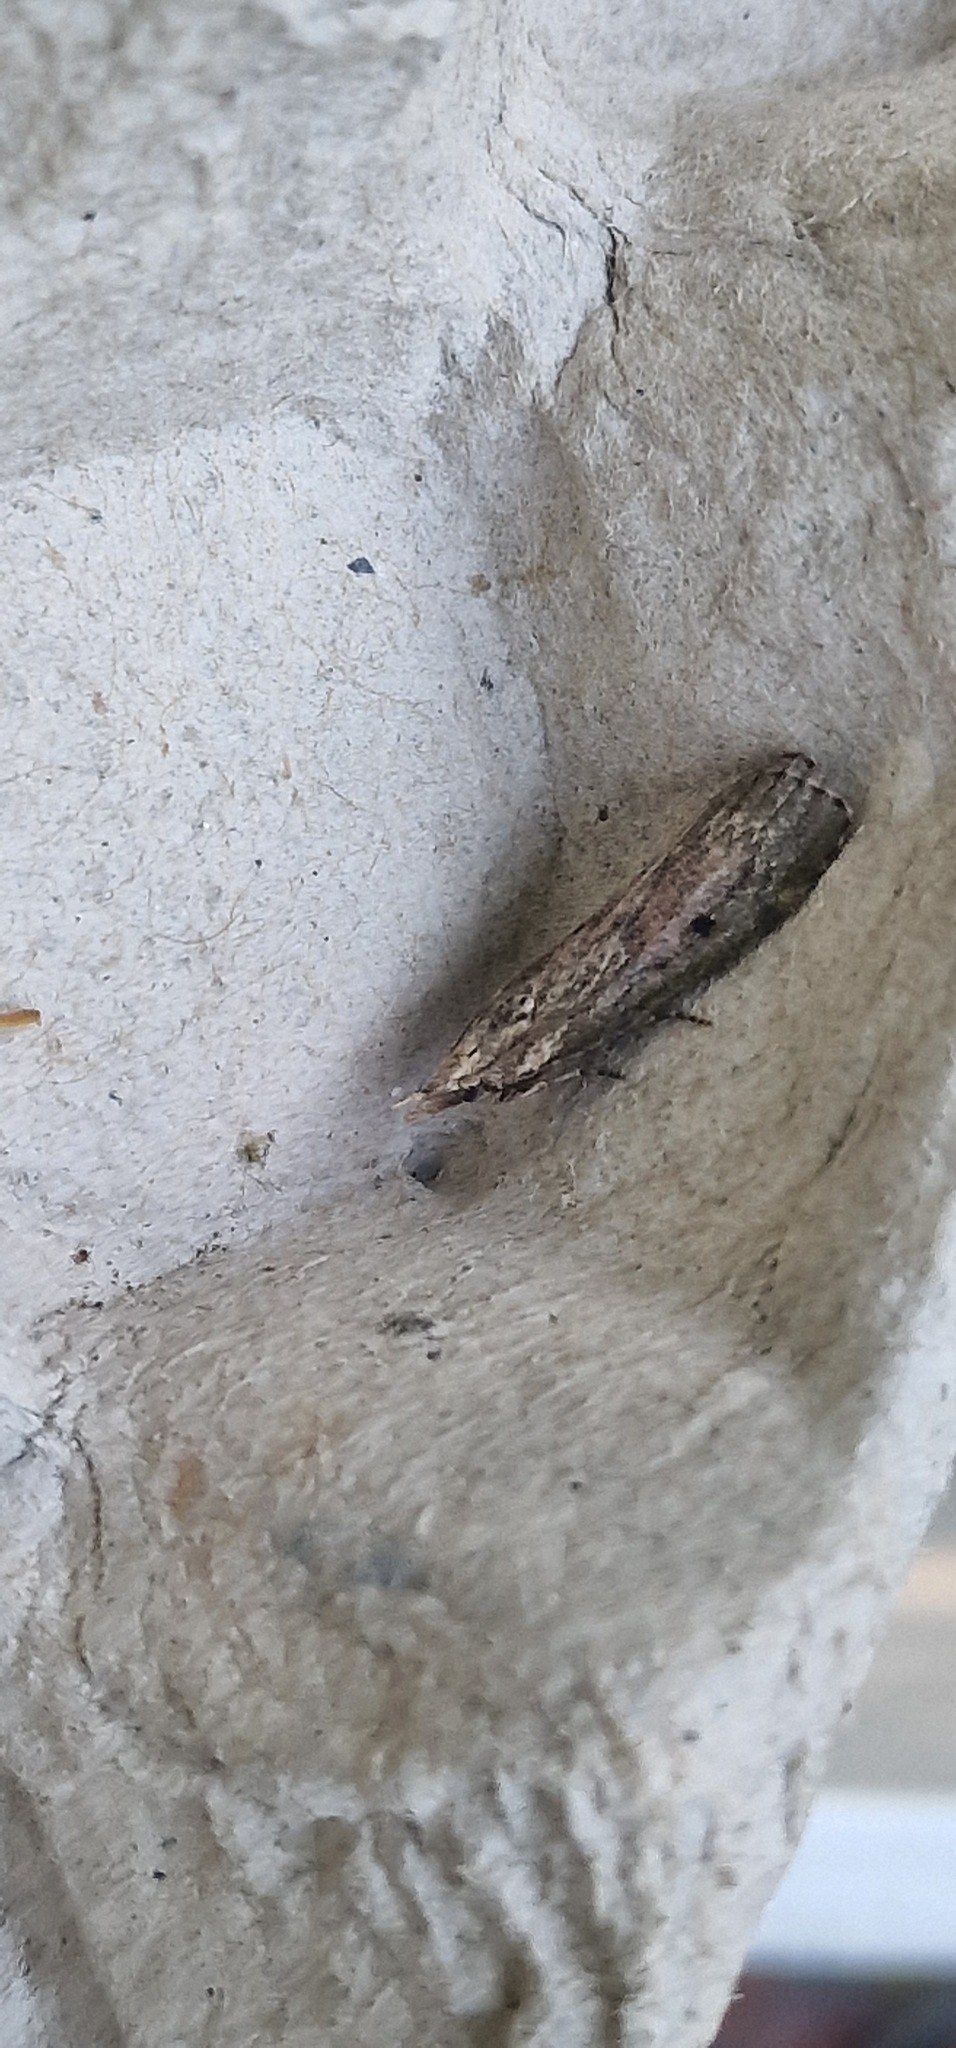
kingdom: Animalia
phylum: Arthropoda
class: Insecta
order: Lepidoptera
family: Pyralidae
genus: Aphomia
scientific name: Aphomia sociella
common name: Bee moth
